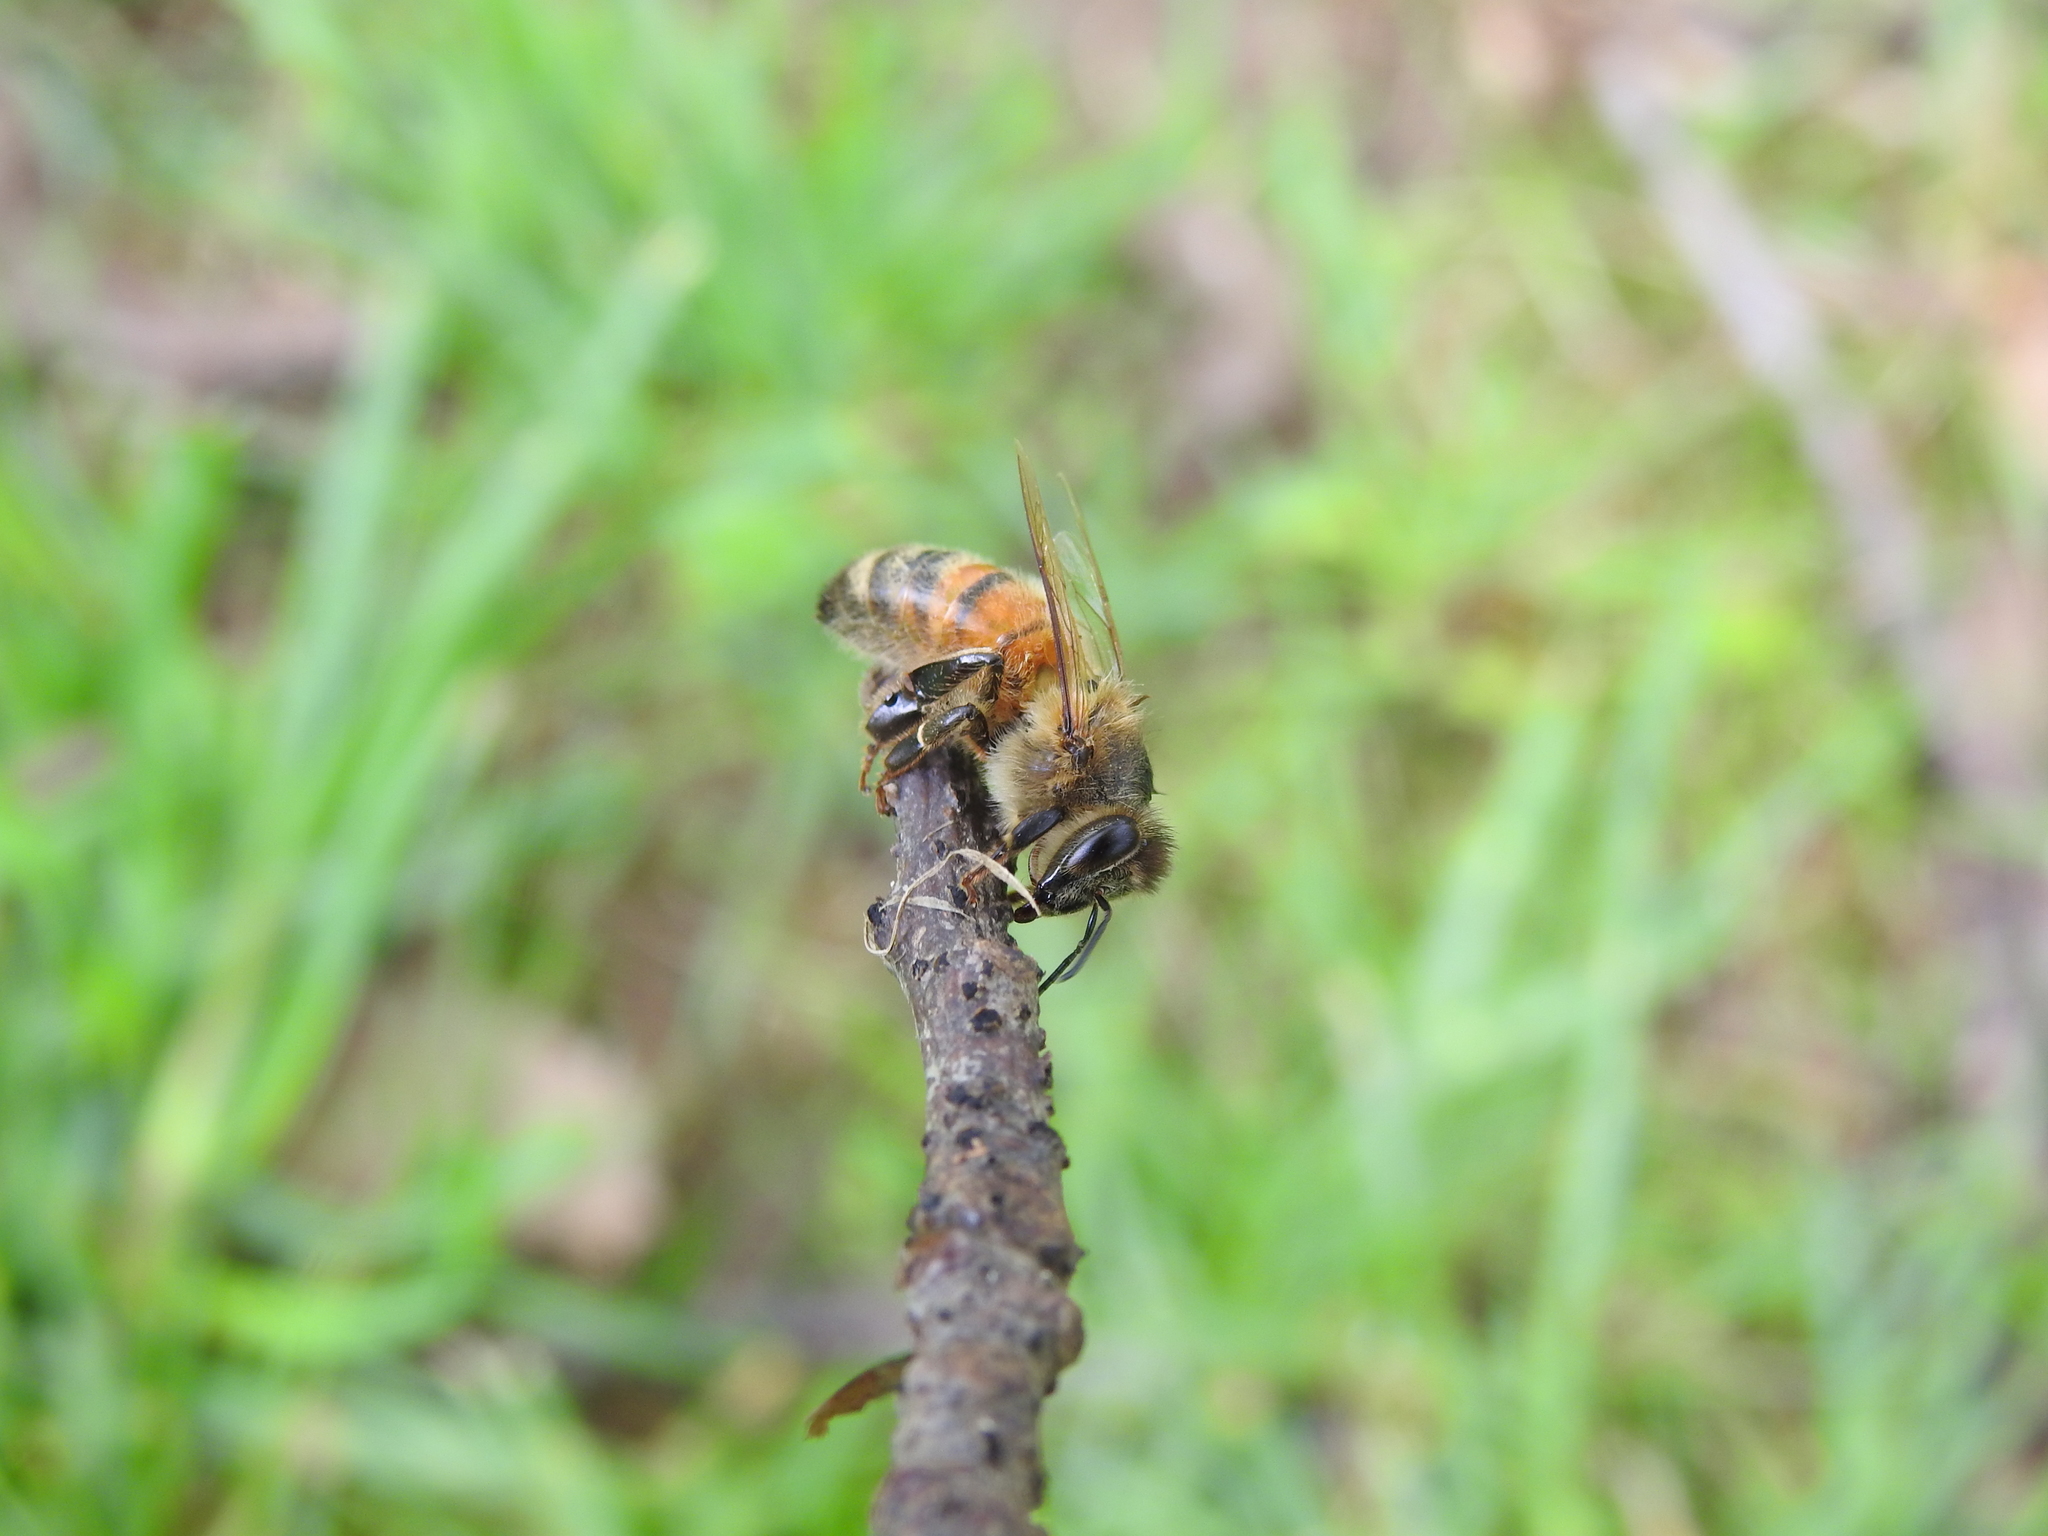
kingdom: Animalia
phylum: Arthropoda
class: Insecta
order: Hymenoptera
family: Apidae
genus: Apis
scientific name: Apis mellifera
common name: Honey bee
